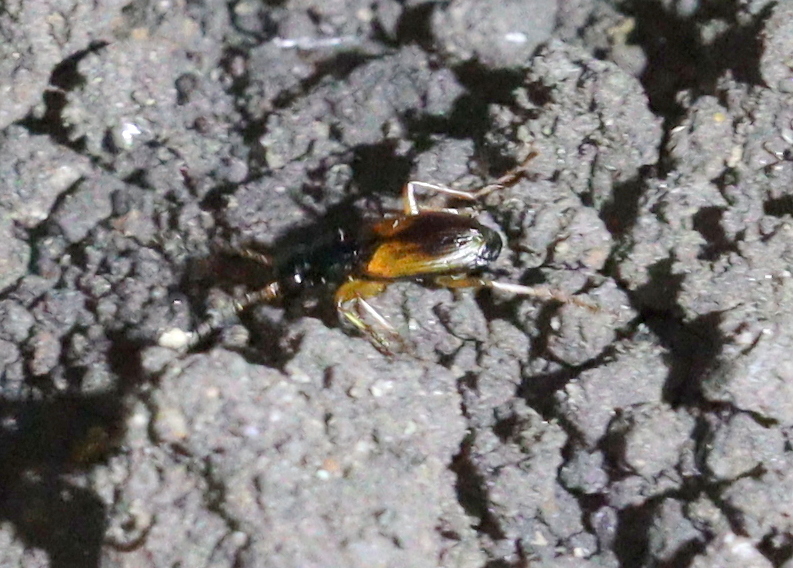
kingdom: Animalia
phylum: Arthropoda
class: Insecta
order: Coleoptera
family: Carabidae
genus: Anchomenus
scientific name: Anchomenus dorsalis
